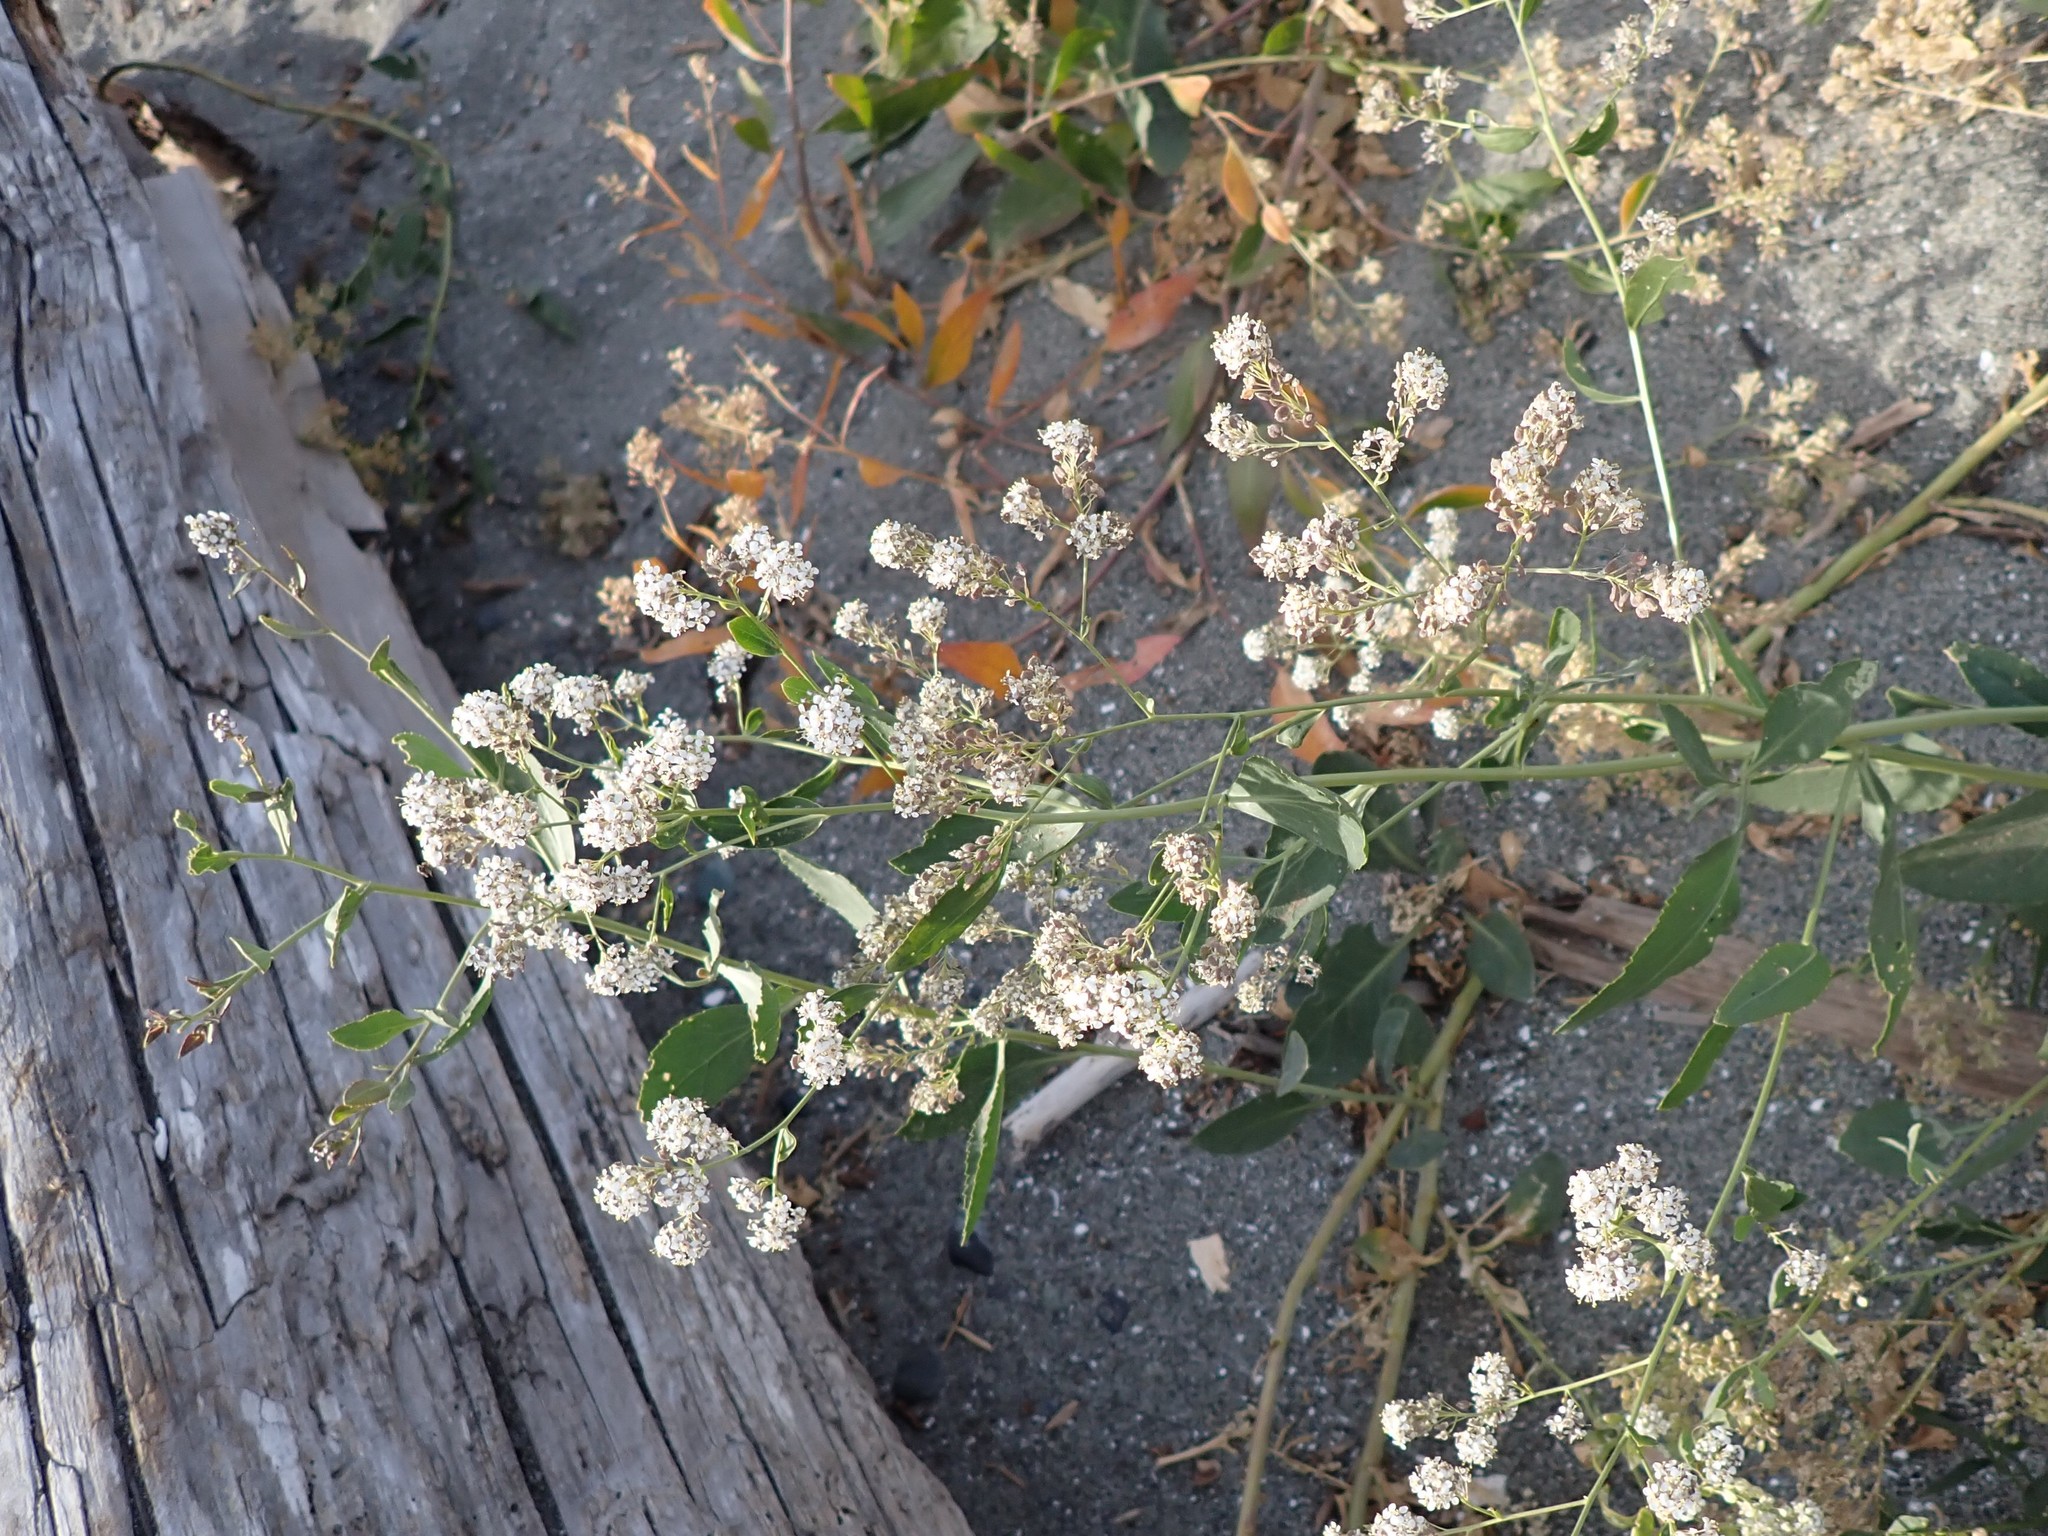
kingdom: Plantae
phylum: Tracheophyta
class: Magnoliopsida
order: Brassicales
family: Brassicaceae
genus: Lepidium
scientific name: Lepidium latifolium
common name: Dittander
